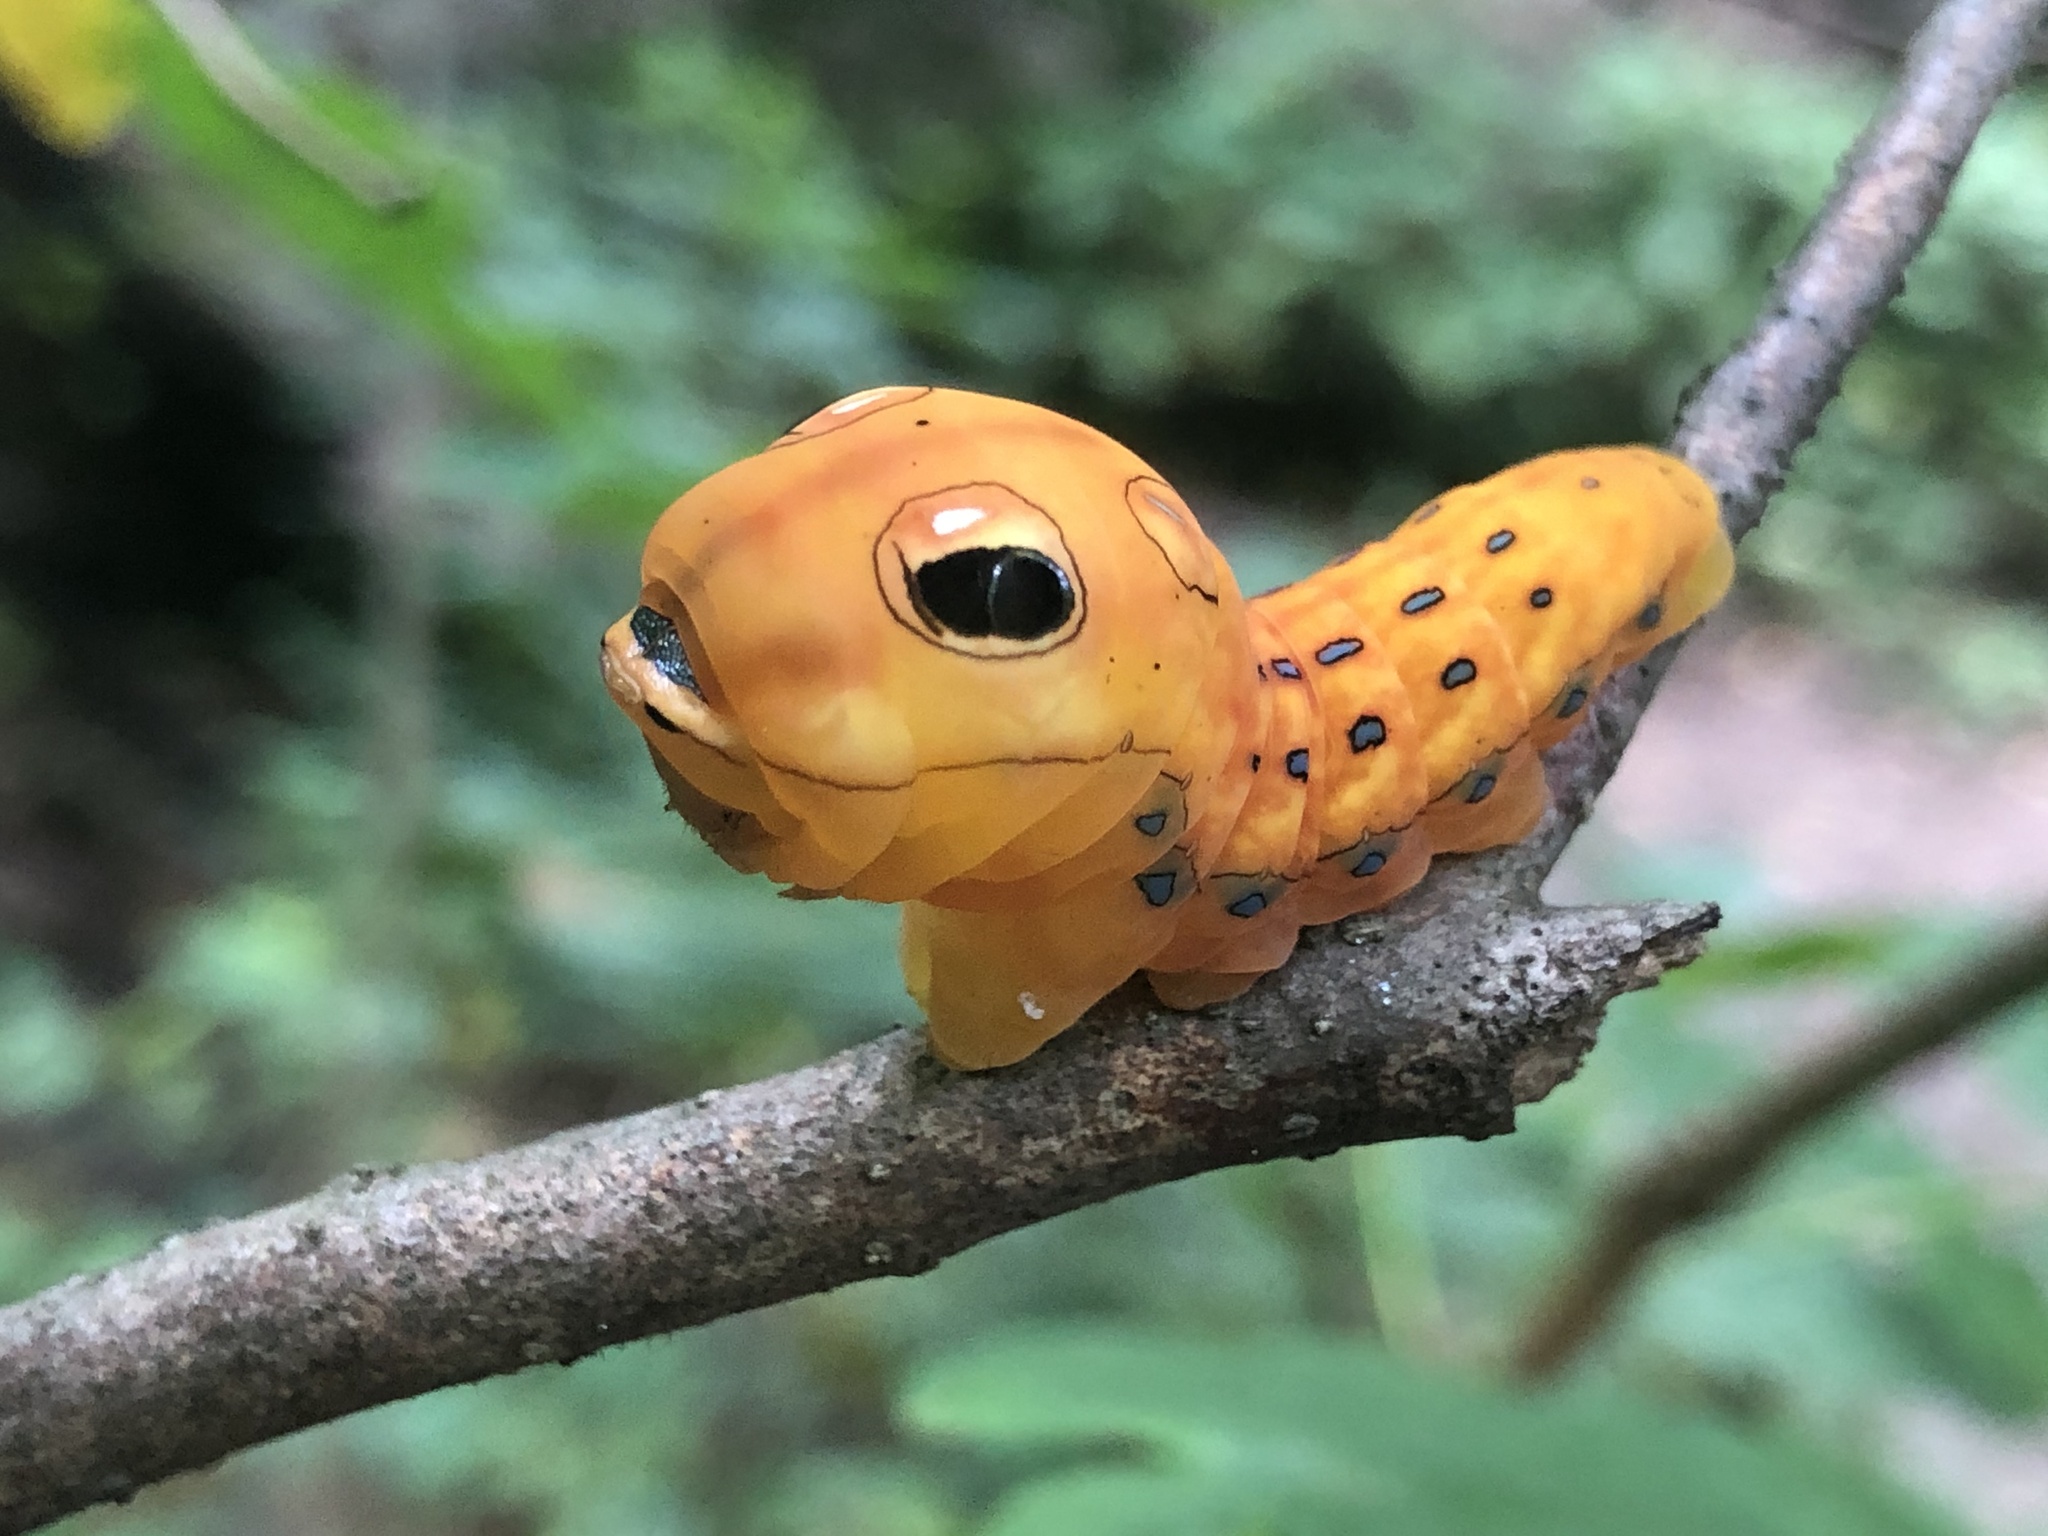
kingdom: Animalia
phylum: Arthropoda
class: Insecta
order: Lepidoptera
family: Papilionidae
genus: Papilio
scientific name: Papilio troilus
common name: Spicebush swallowtail
